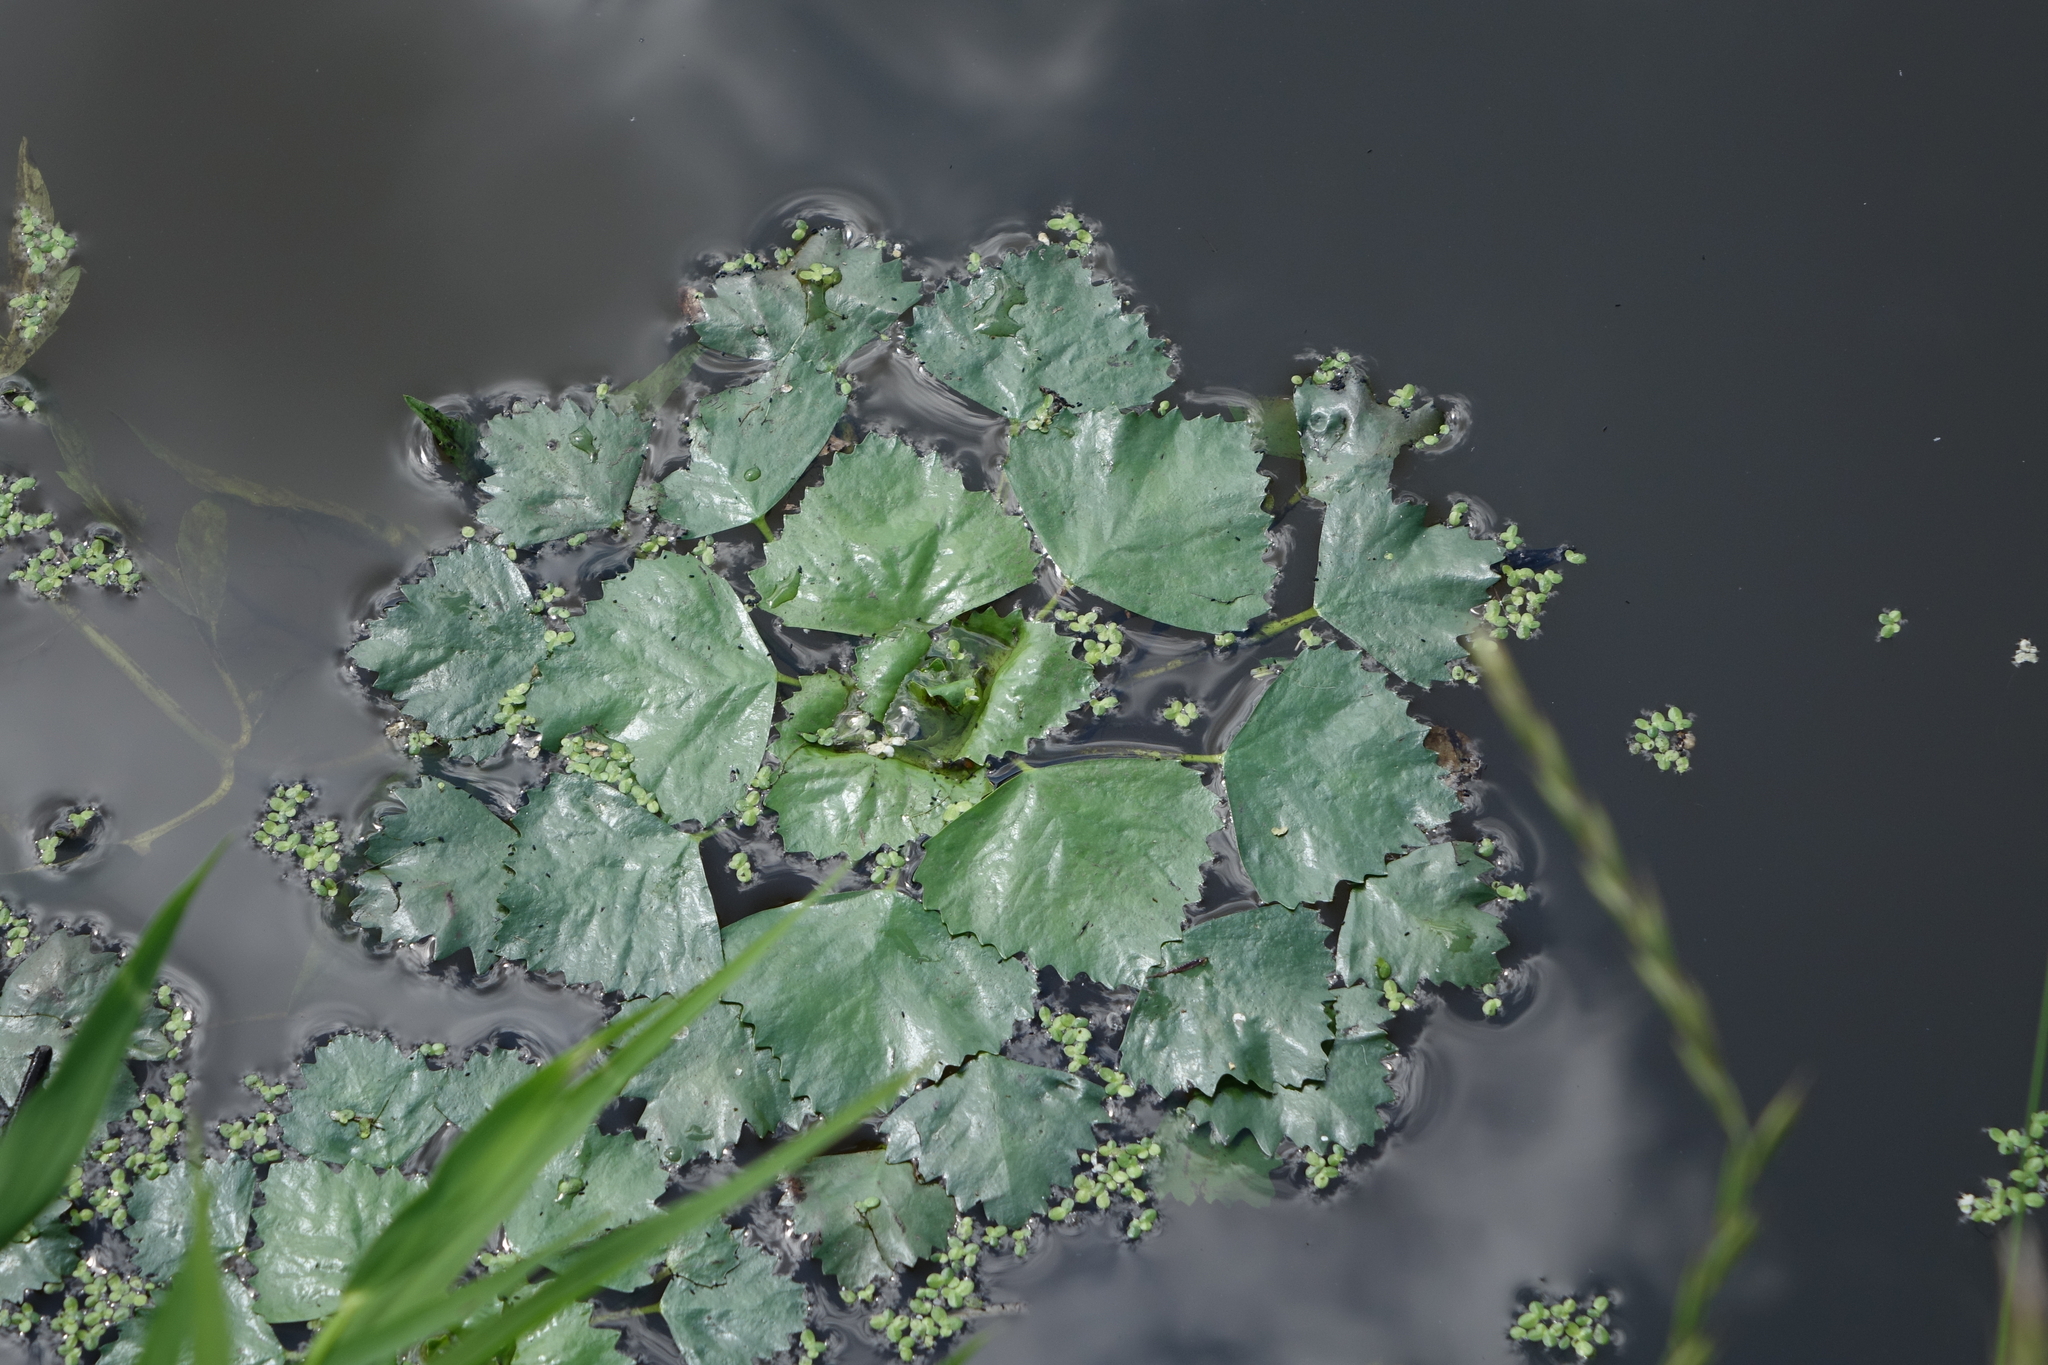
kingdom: Plantae
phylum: Tracheophyta
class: Magnoliopsida
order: Myrtales
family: Lythraceae
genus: Trapa
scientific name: Trapa natans
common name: Water chestnut
